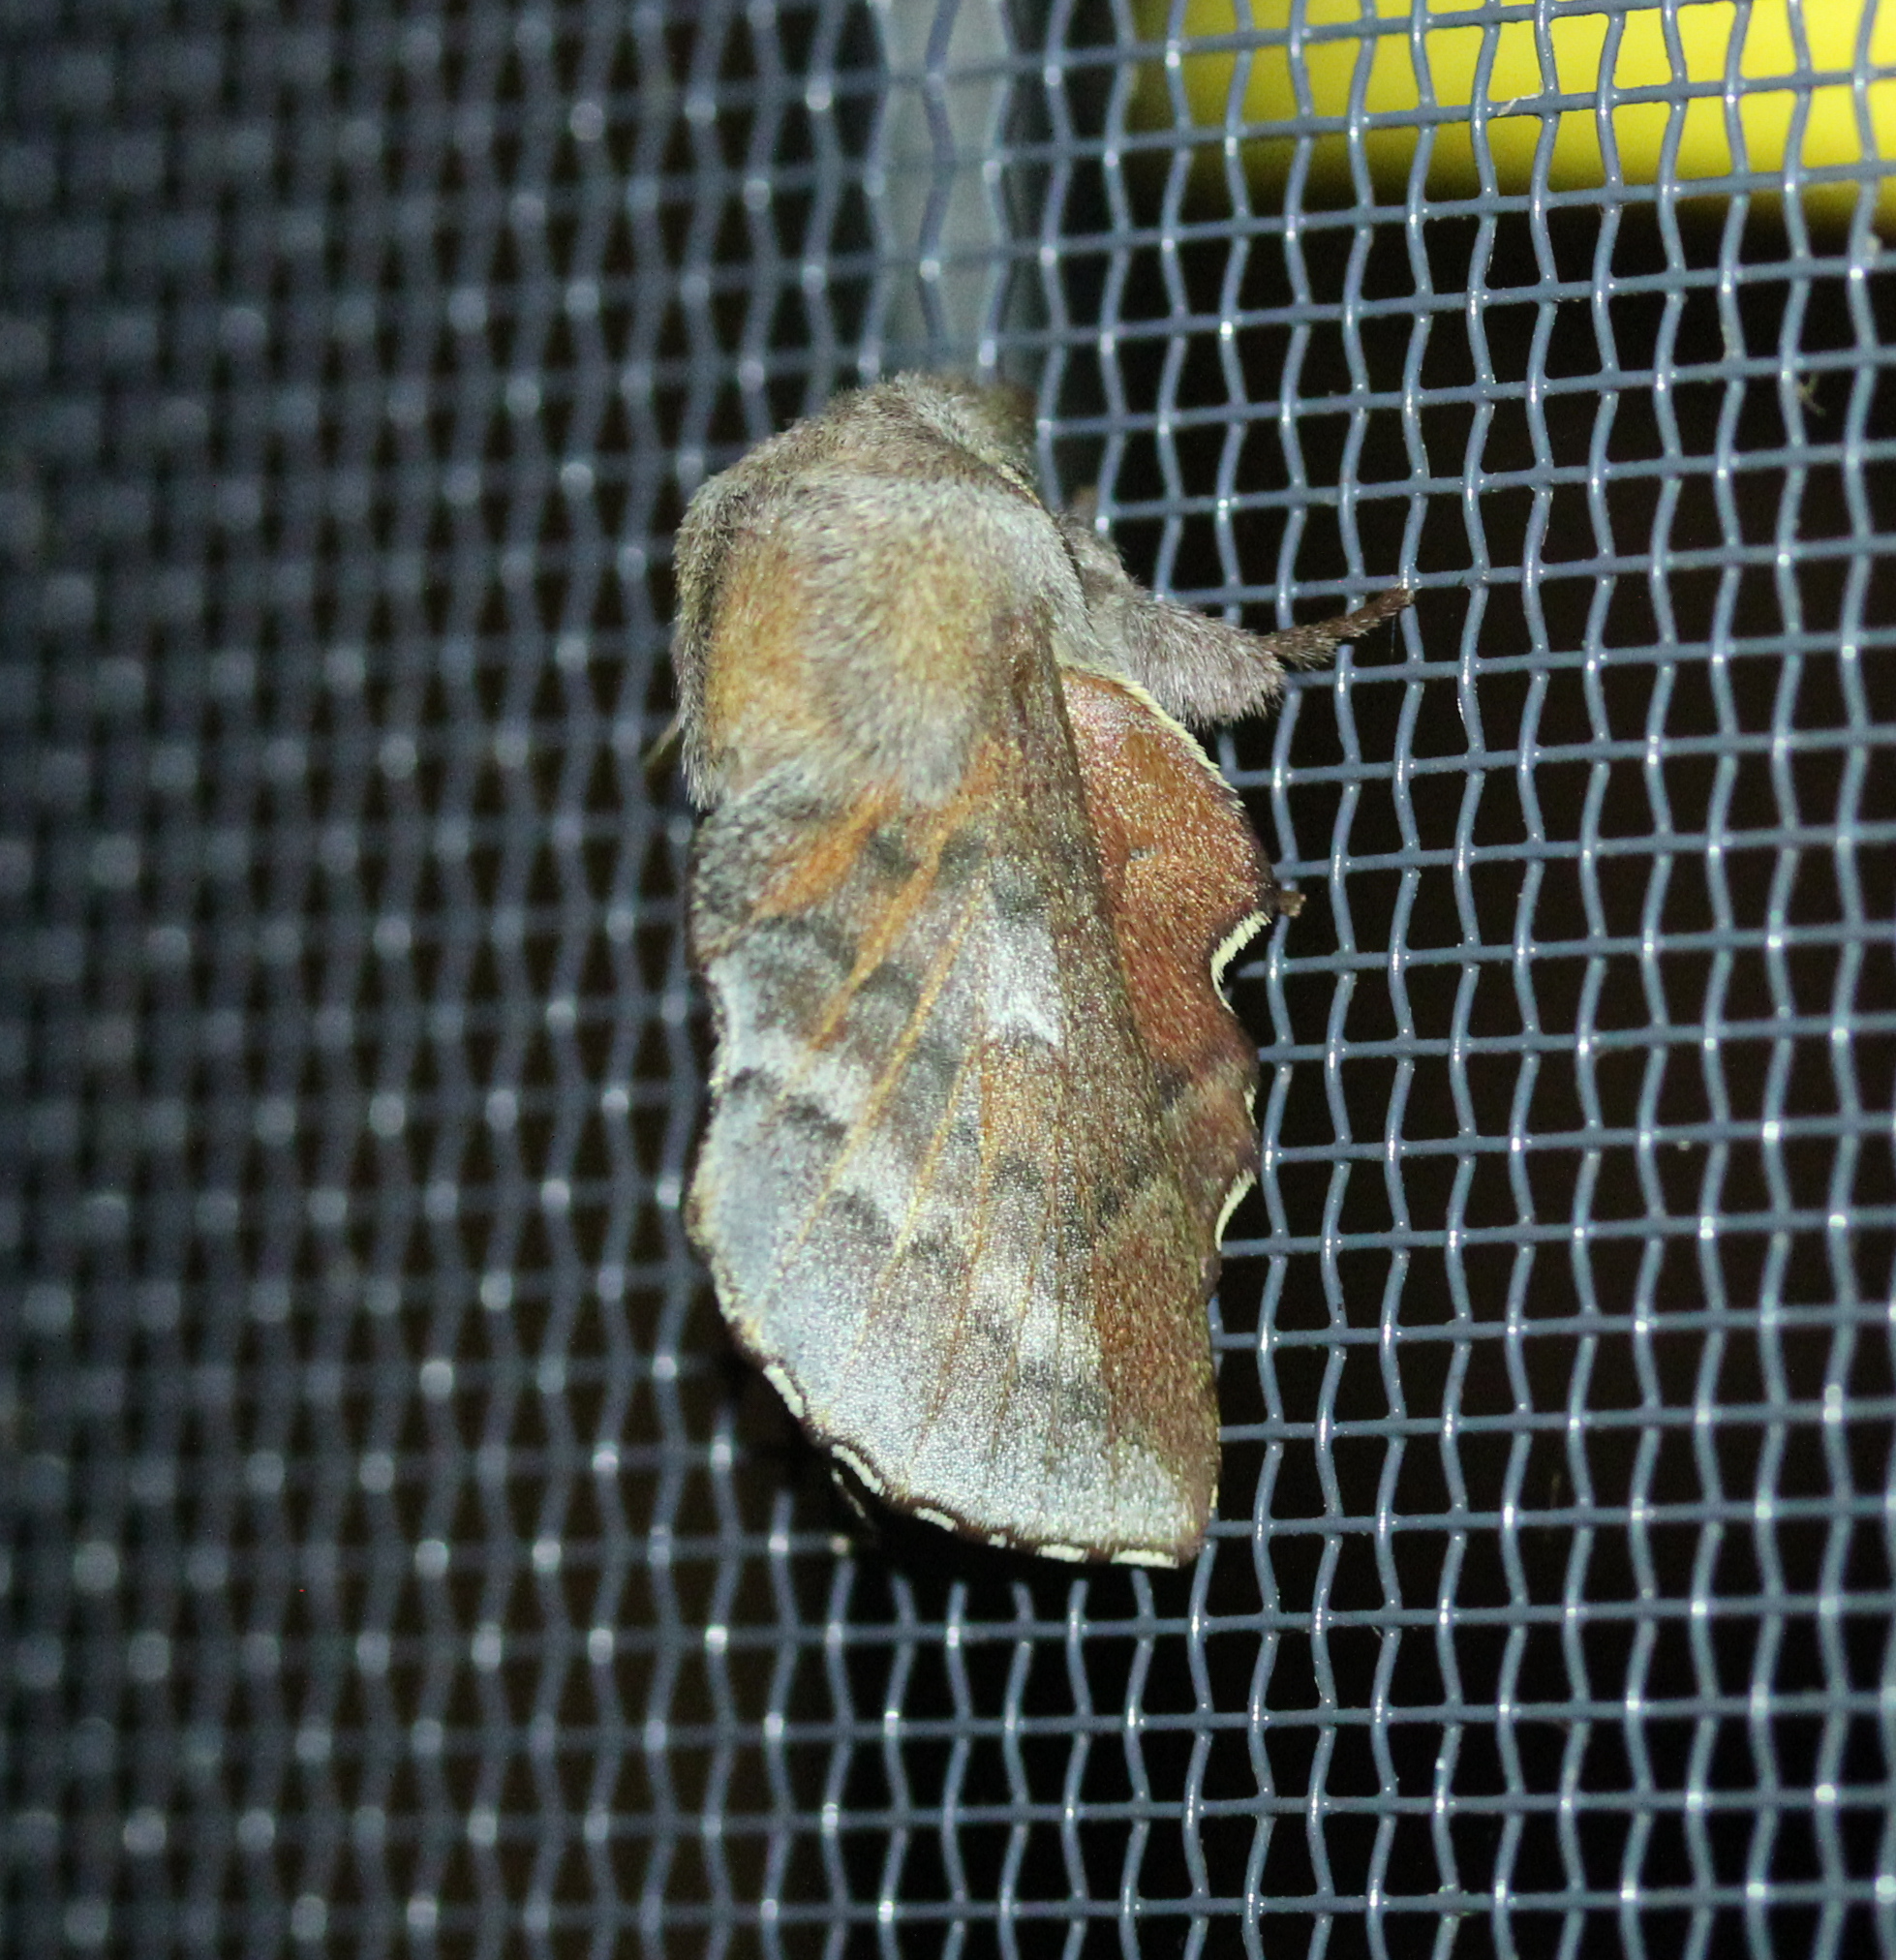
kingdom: Animalia
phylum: Arthropoda
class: Insecta
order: Lepidoptera
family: Lasiocampidae
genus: Phyllodesma
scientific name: Phyllodesma americana
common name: American lappet moth
